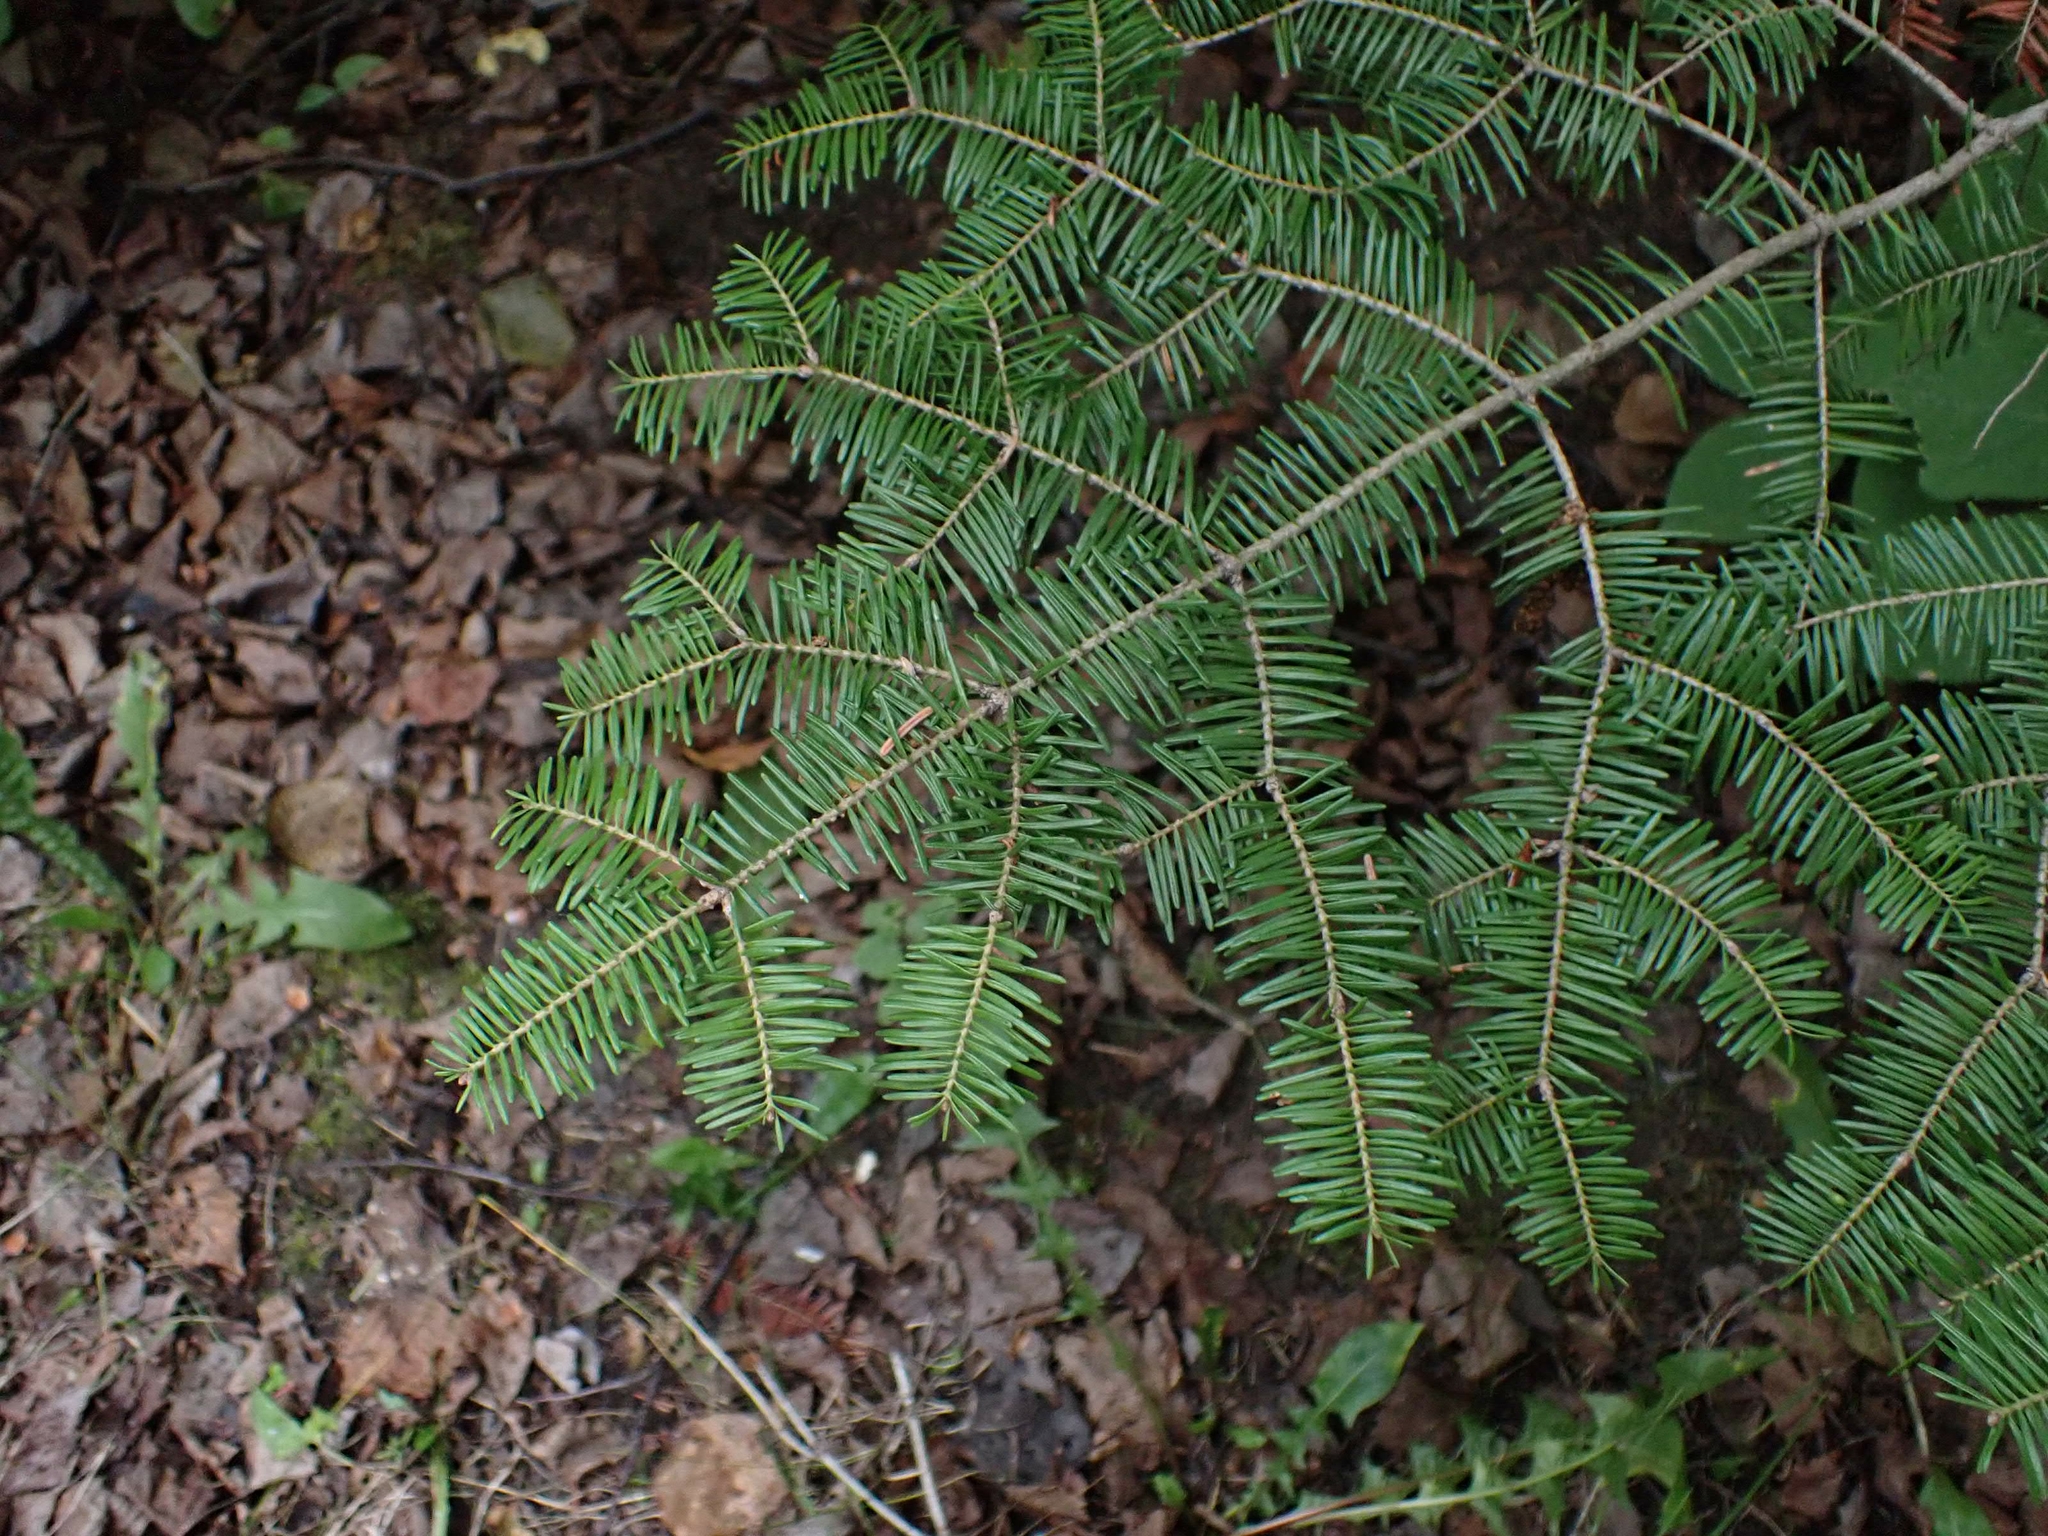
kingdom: Plantae
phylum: Tracheophyta
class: Pinopsida
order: Pinales
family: Pinaceae
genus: Abies
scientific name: Abies balsamea
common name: Balsam fir
